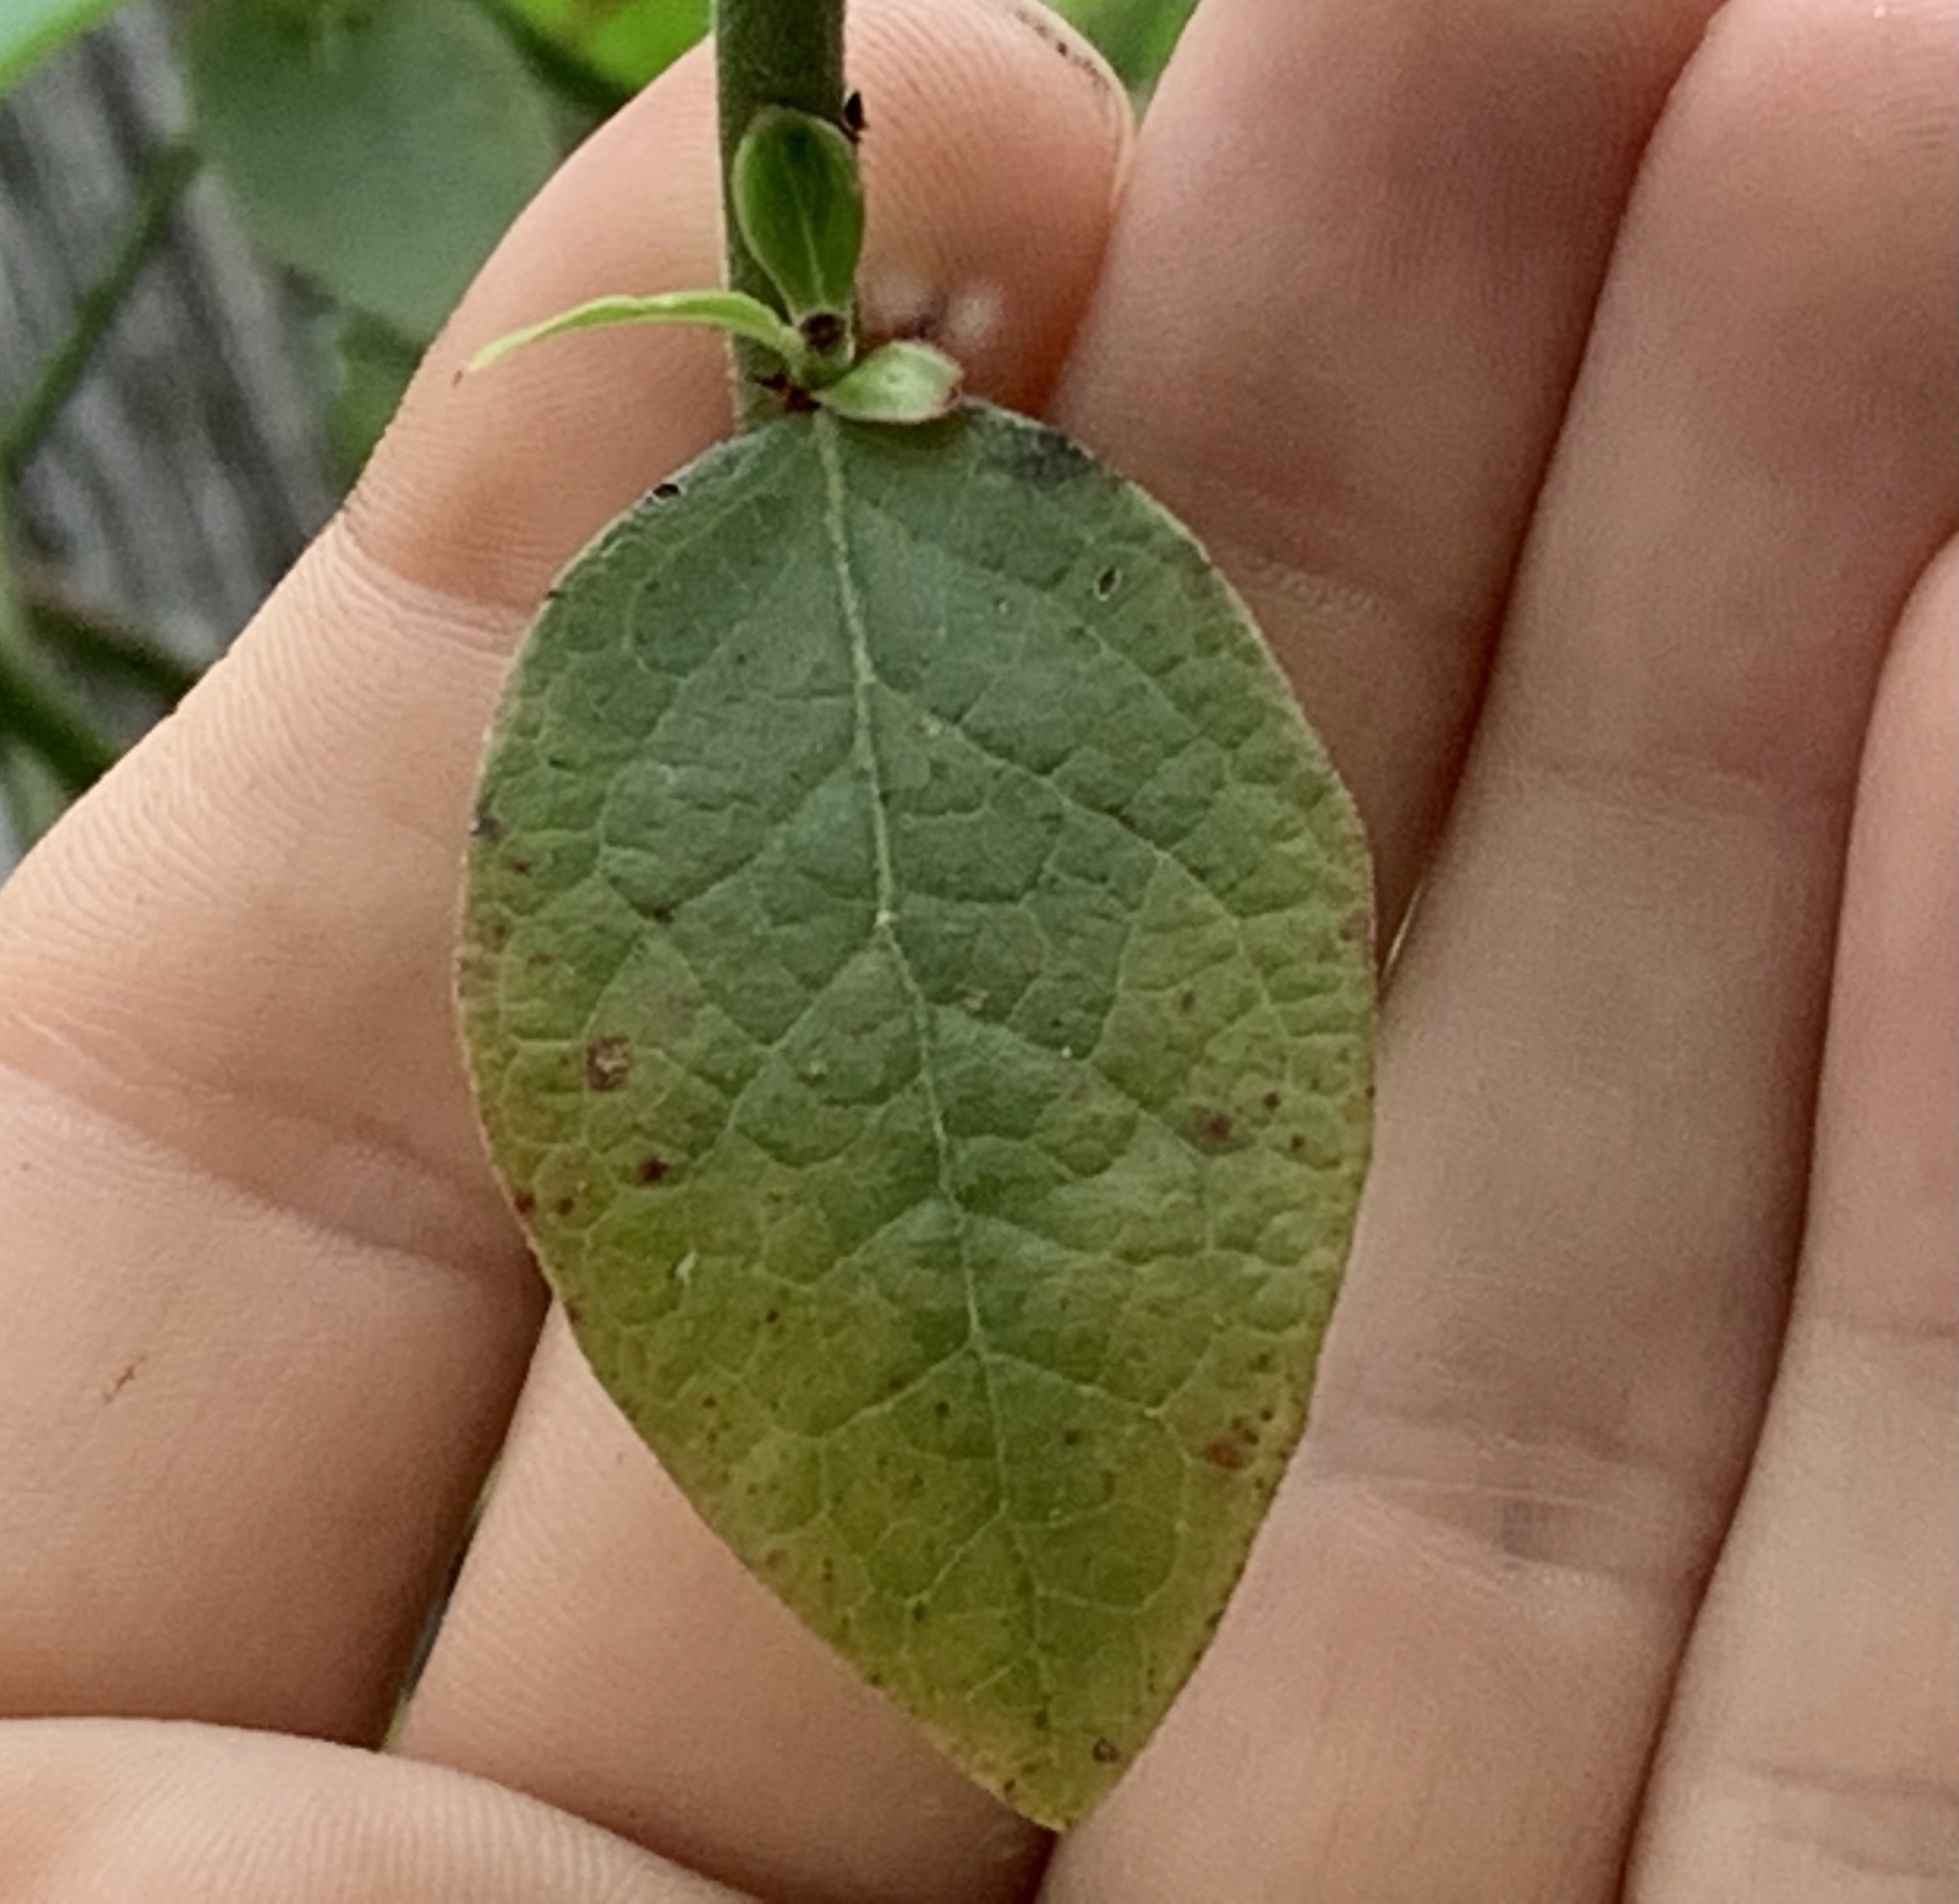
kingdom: Plantae
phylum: Tracheophyta
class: Magnoliopsida
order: Ericales
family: Ericaceae
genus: Vaccinium
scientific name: Vaccinium corymbosum
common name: Blueberry
